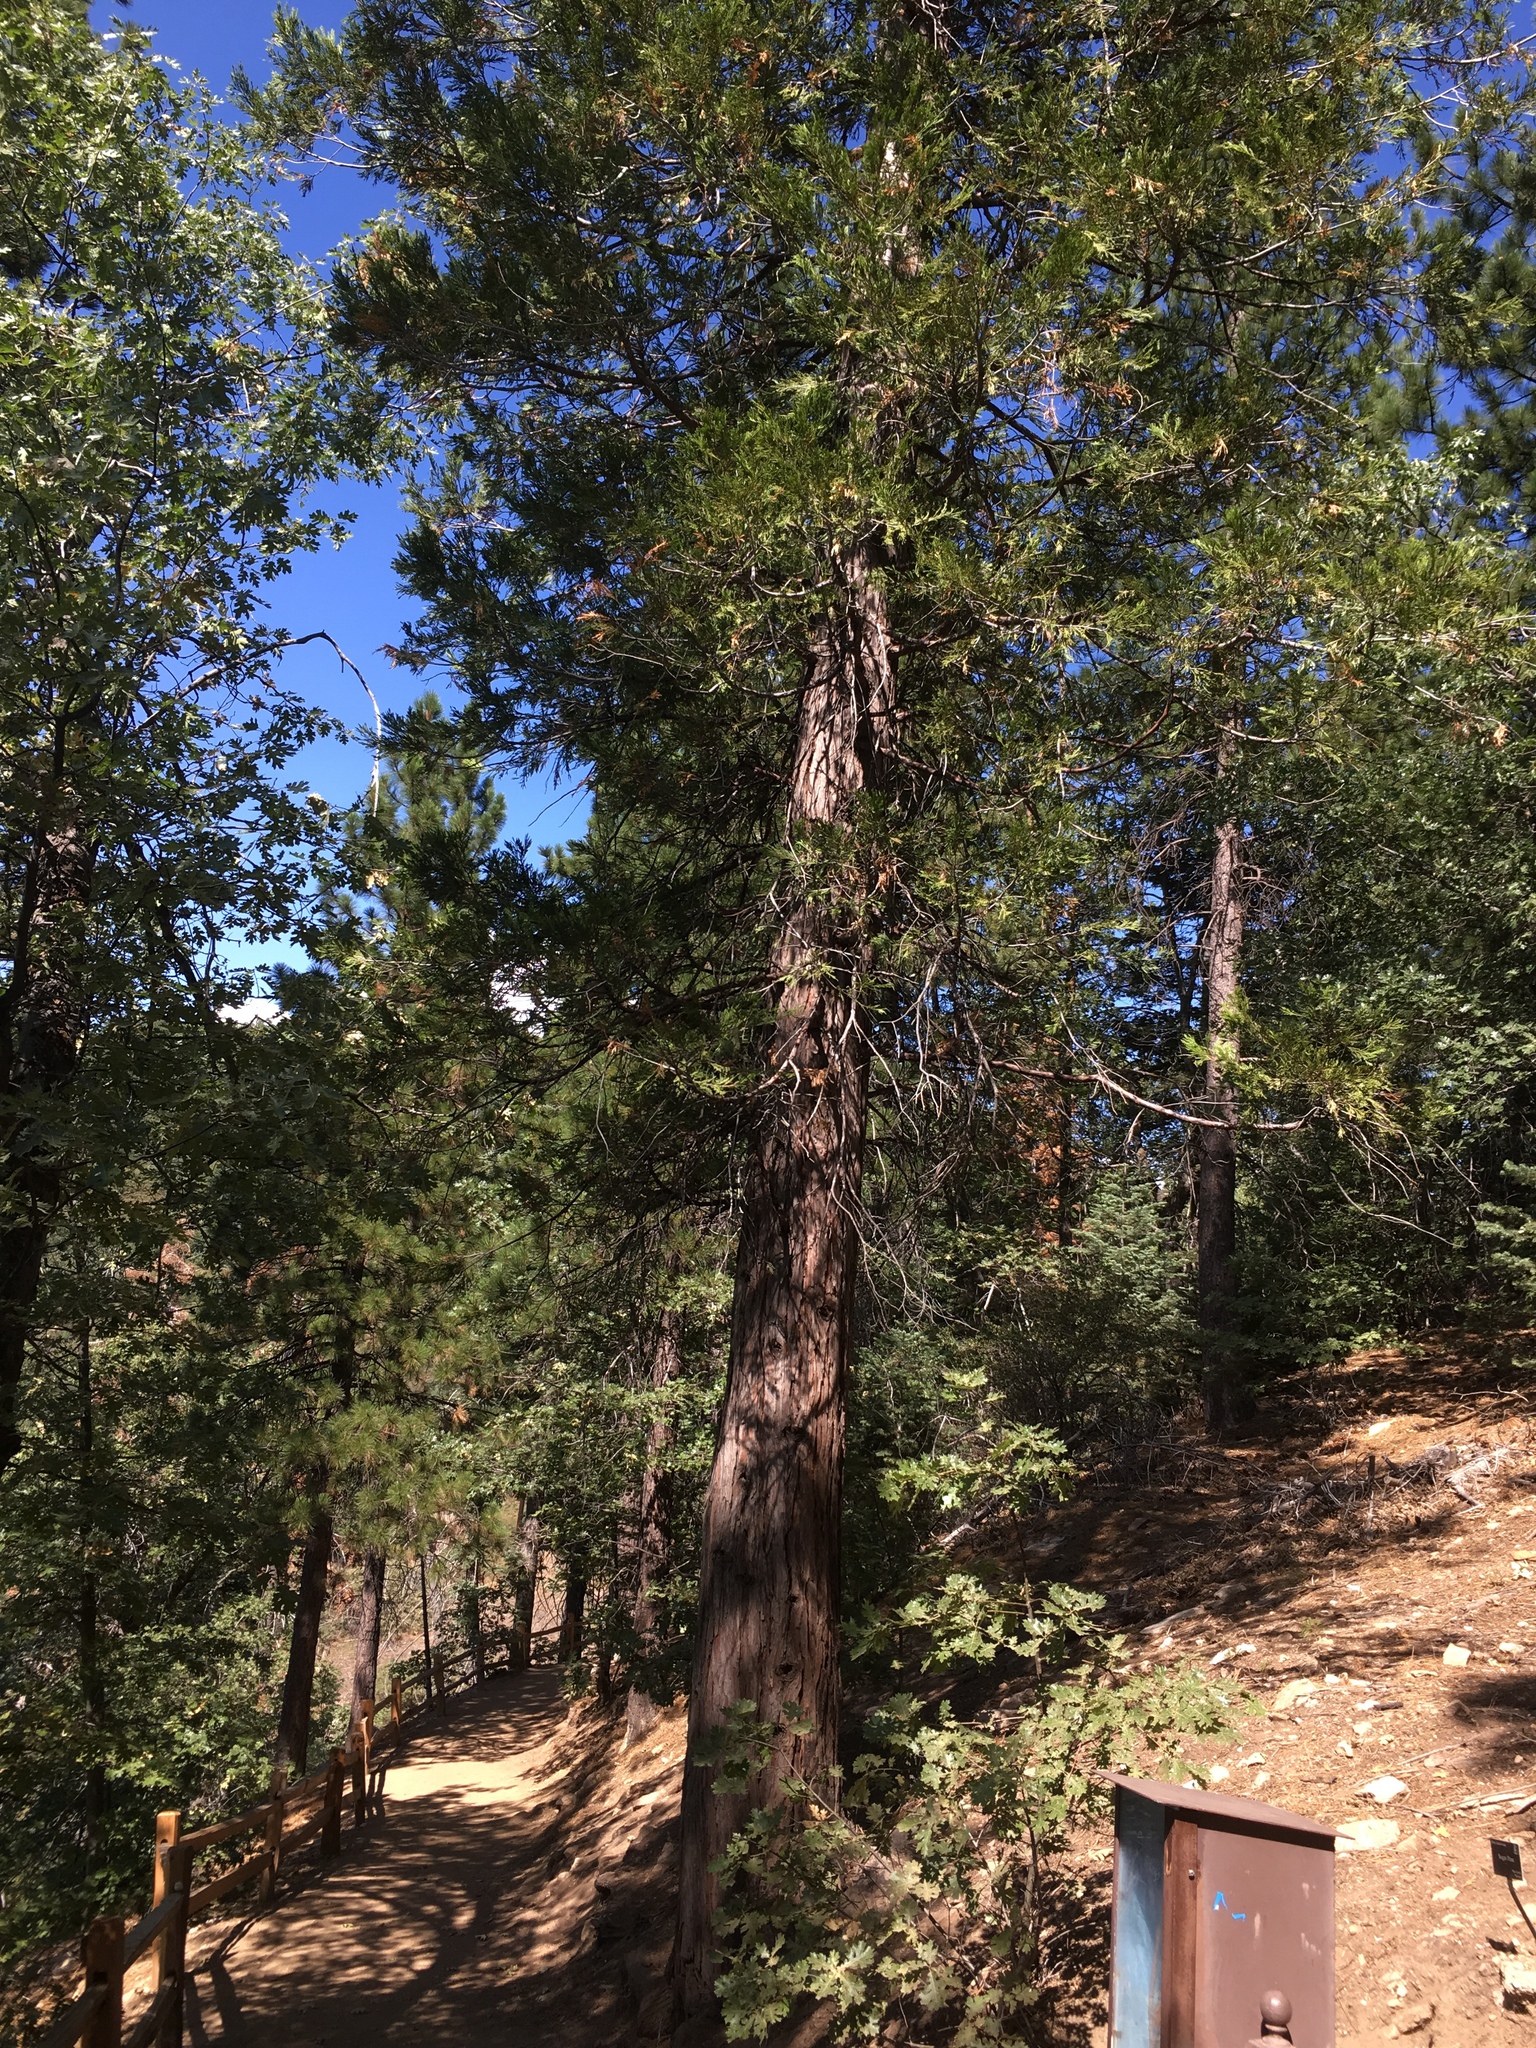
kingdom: Plantae
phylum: Tracheophyta
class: Pinopsida
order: Pinales
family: Cupressaceae
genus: Calocedrus
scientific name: Calocedrus decurrens
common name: Californian incense-cedar
